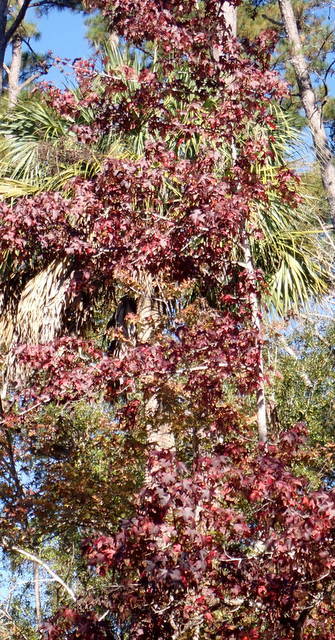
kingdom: Plantae
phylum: Tracheophyta
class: Magnoliopsida
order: Saxifragales
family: Altingiaceae
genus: Liquidambar
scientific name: Liquidambar styraciflua
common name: Sweet gum
